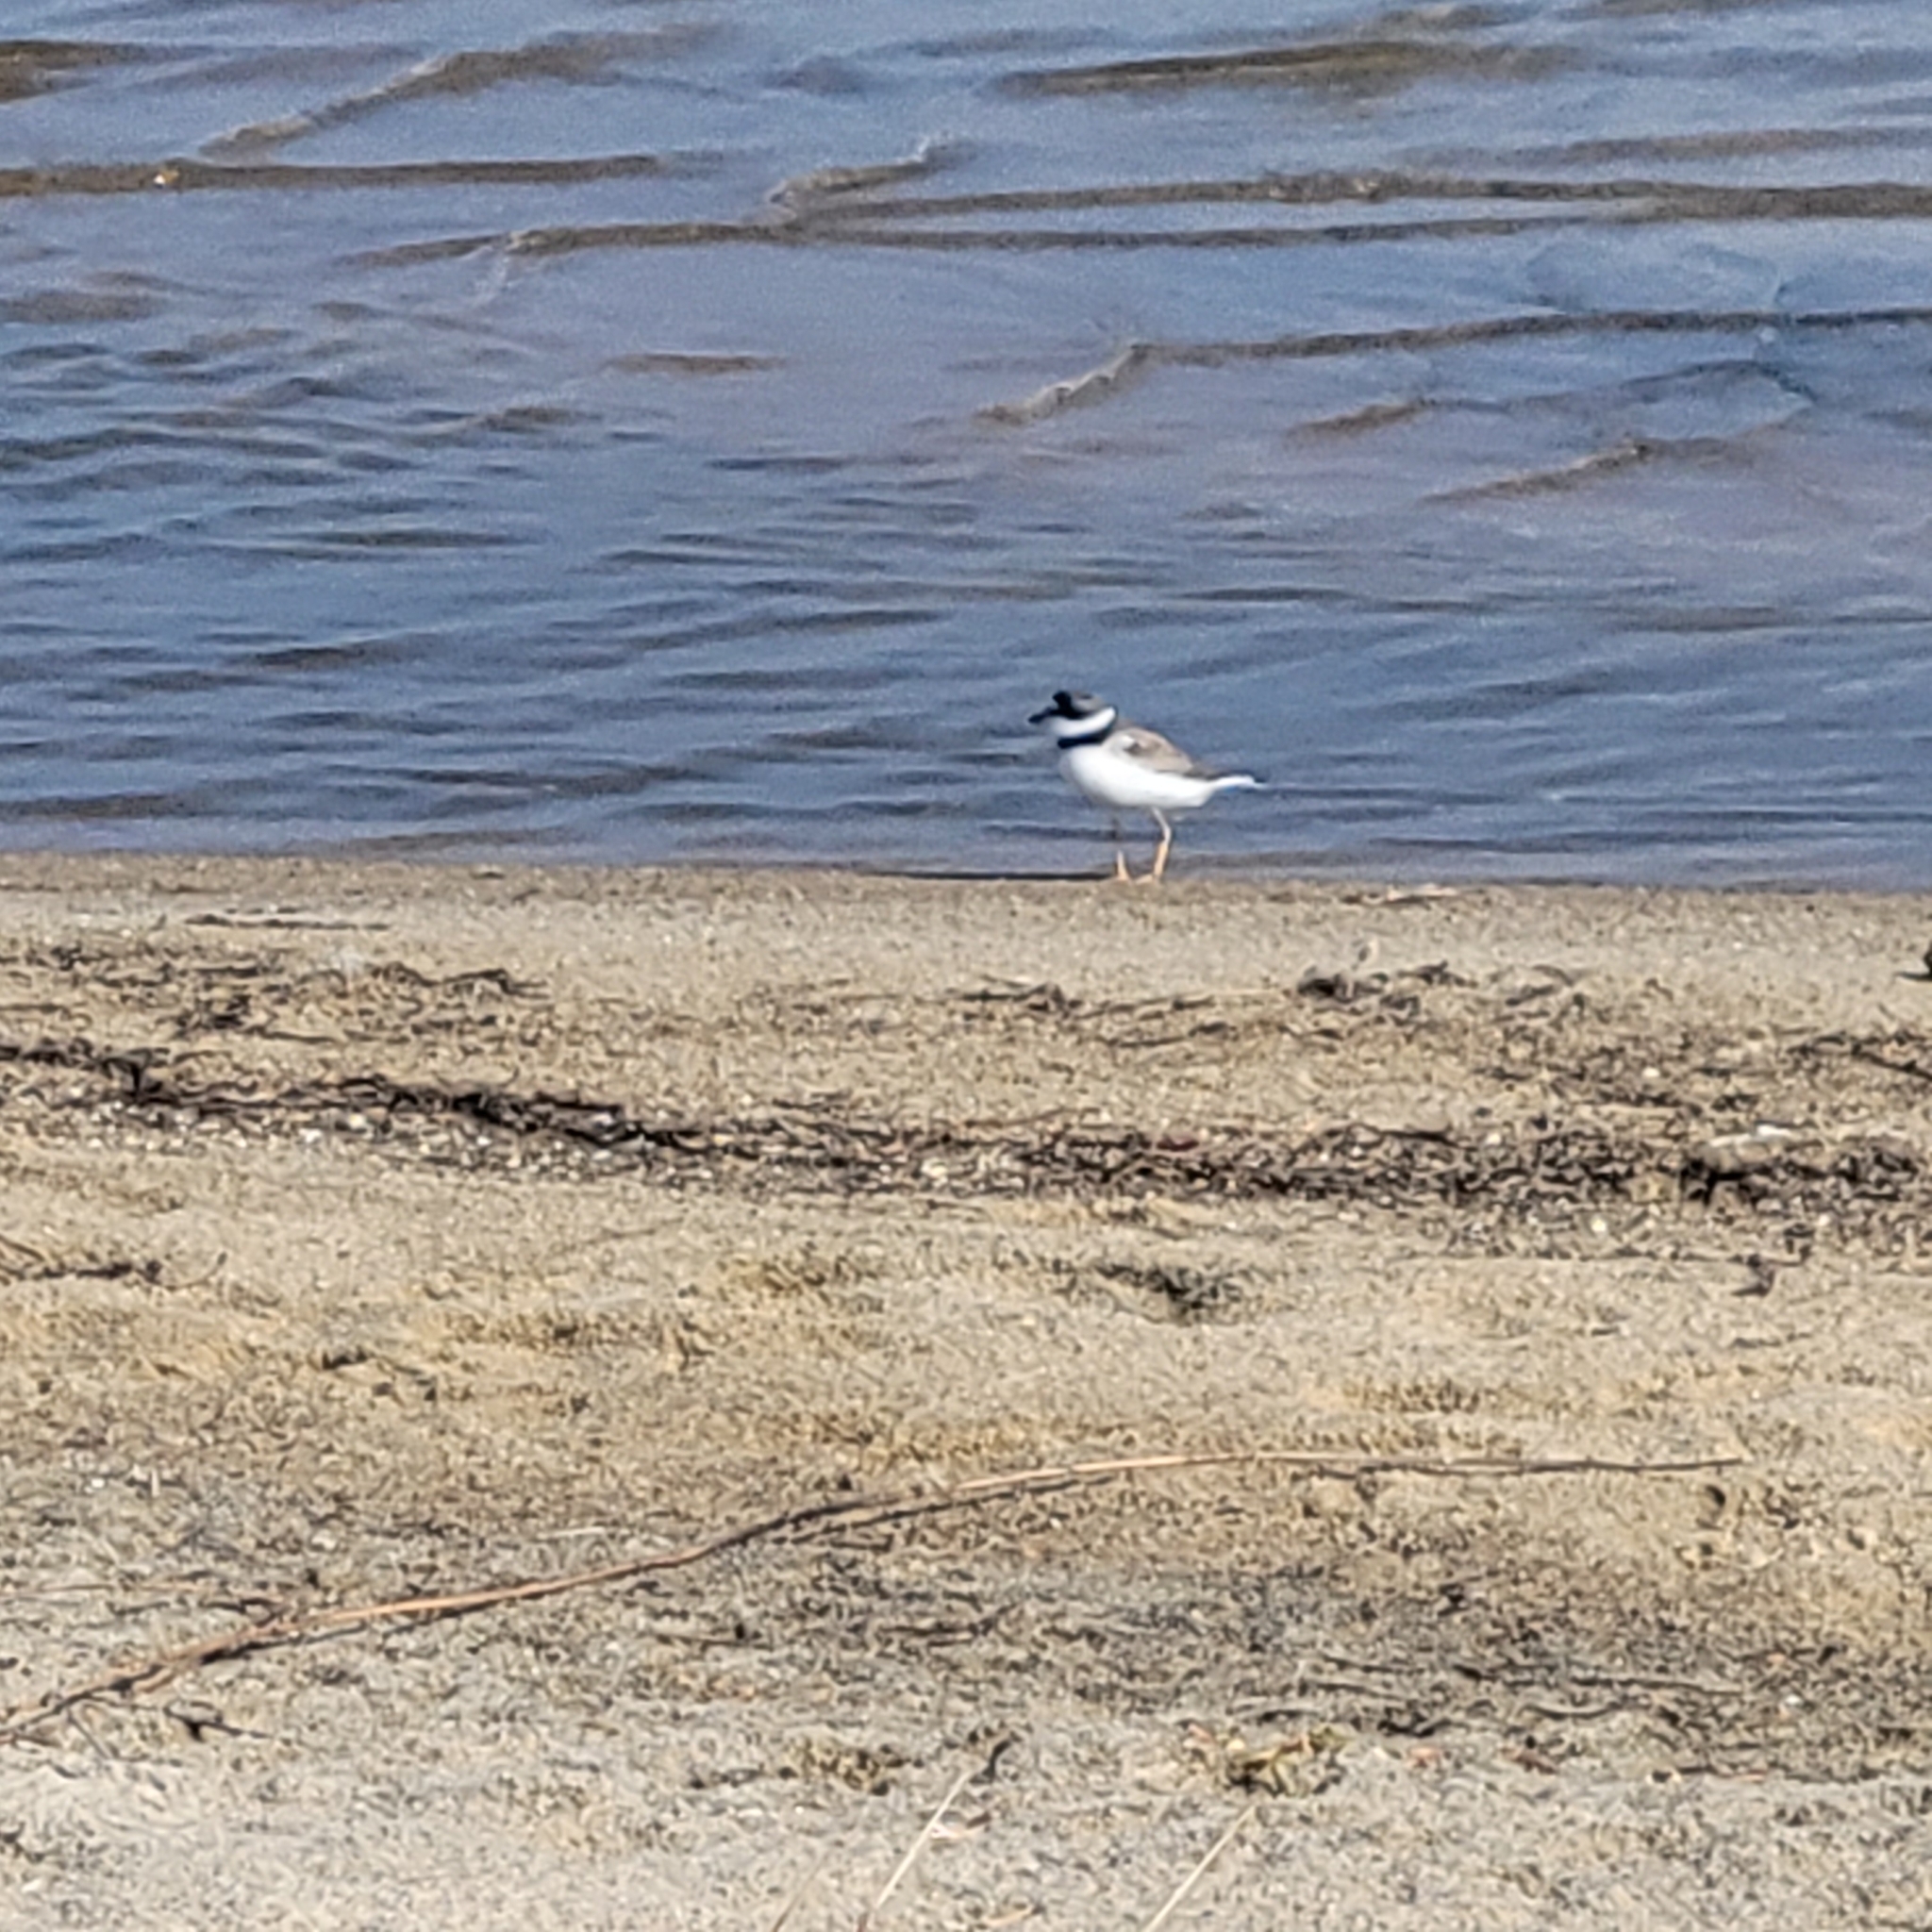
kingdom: Animalia
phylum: Chordata
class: Aves
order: Charadriiformes
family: Charadriidae
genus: Charadrius
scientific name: Charadrius semipalmatus
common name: Semipalmated plover
